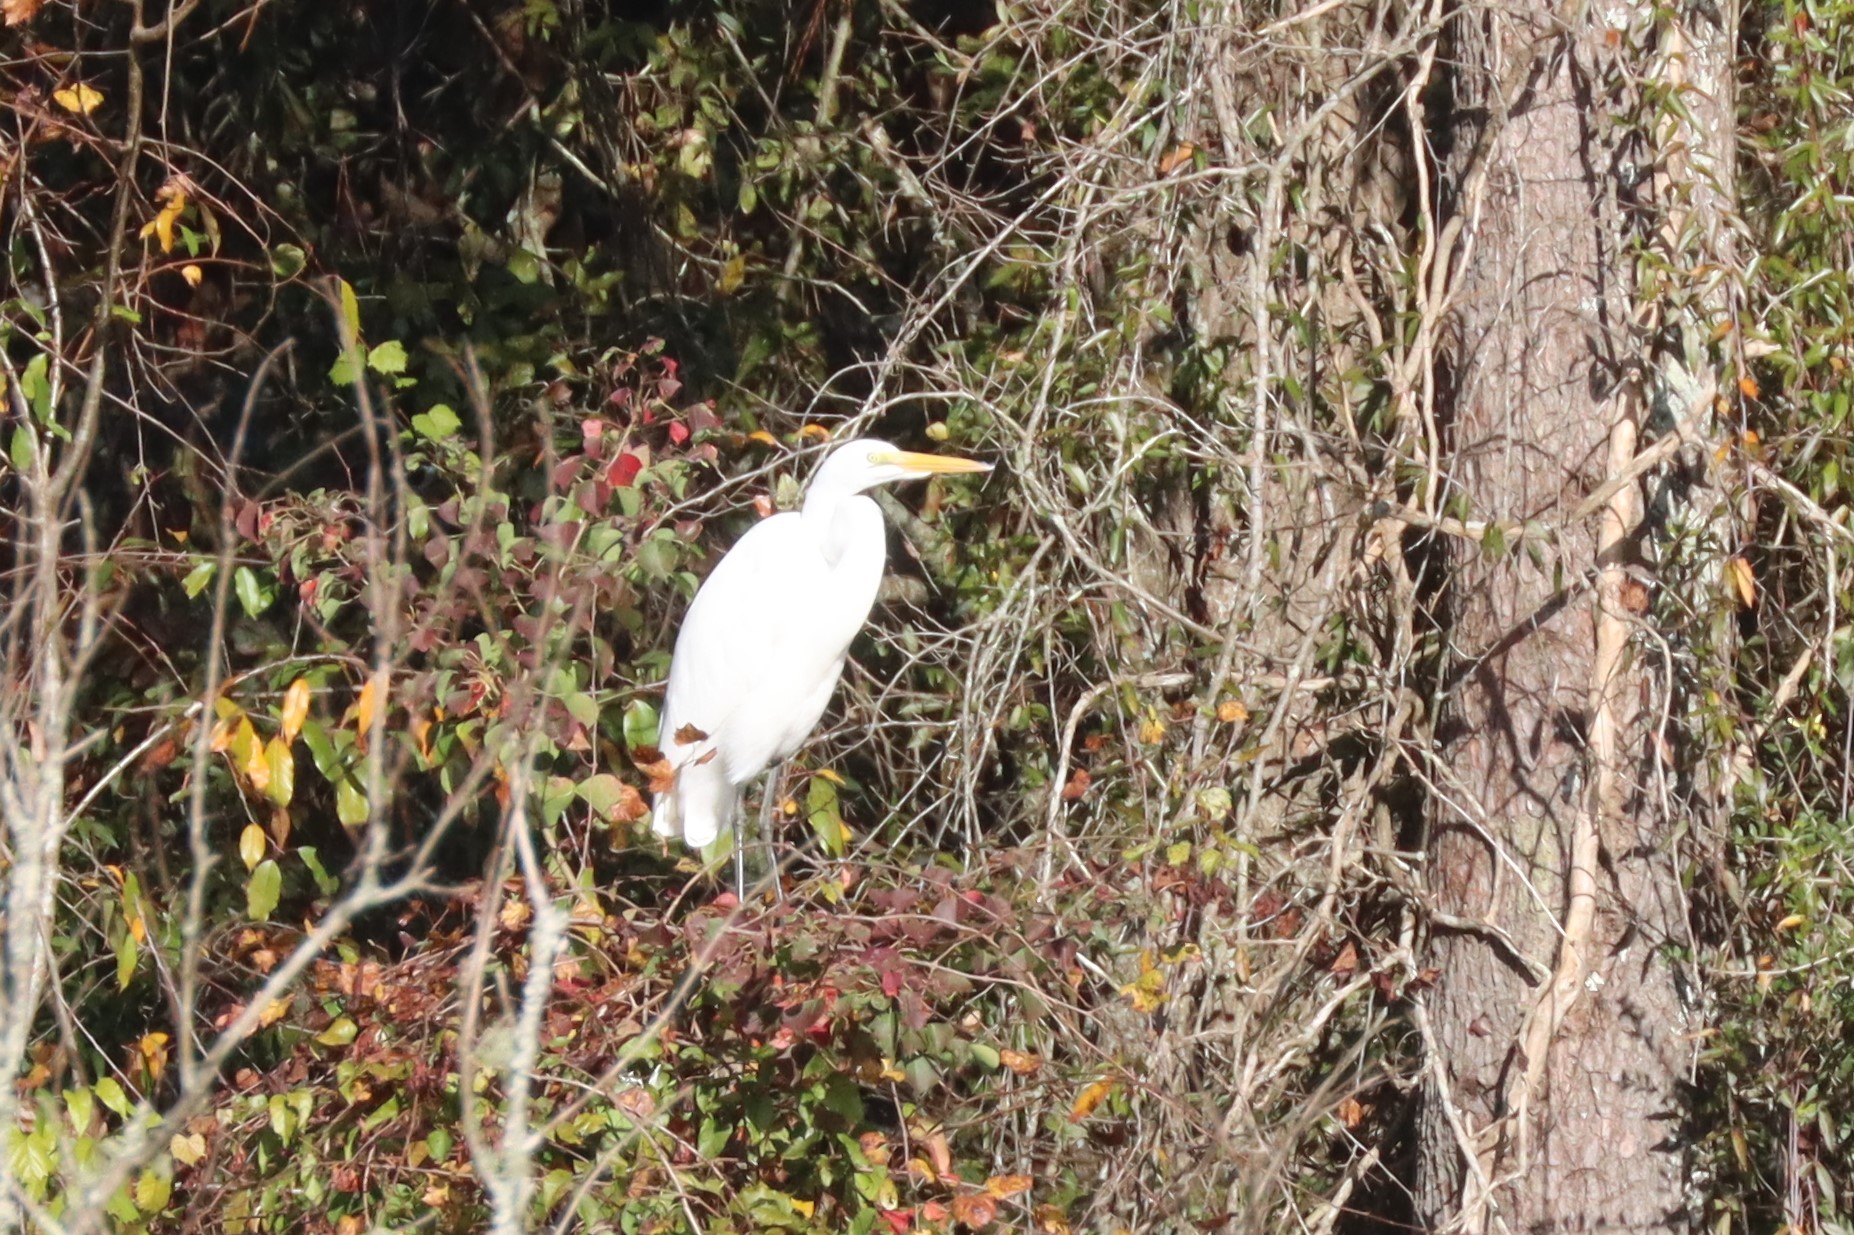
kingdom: Animalia
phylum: Chordata
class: Aves
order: Pelecaniformes
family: Ardeidae
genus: Ardea
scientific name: Ardea alba
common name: Great egret
